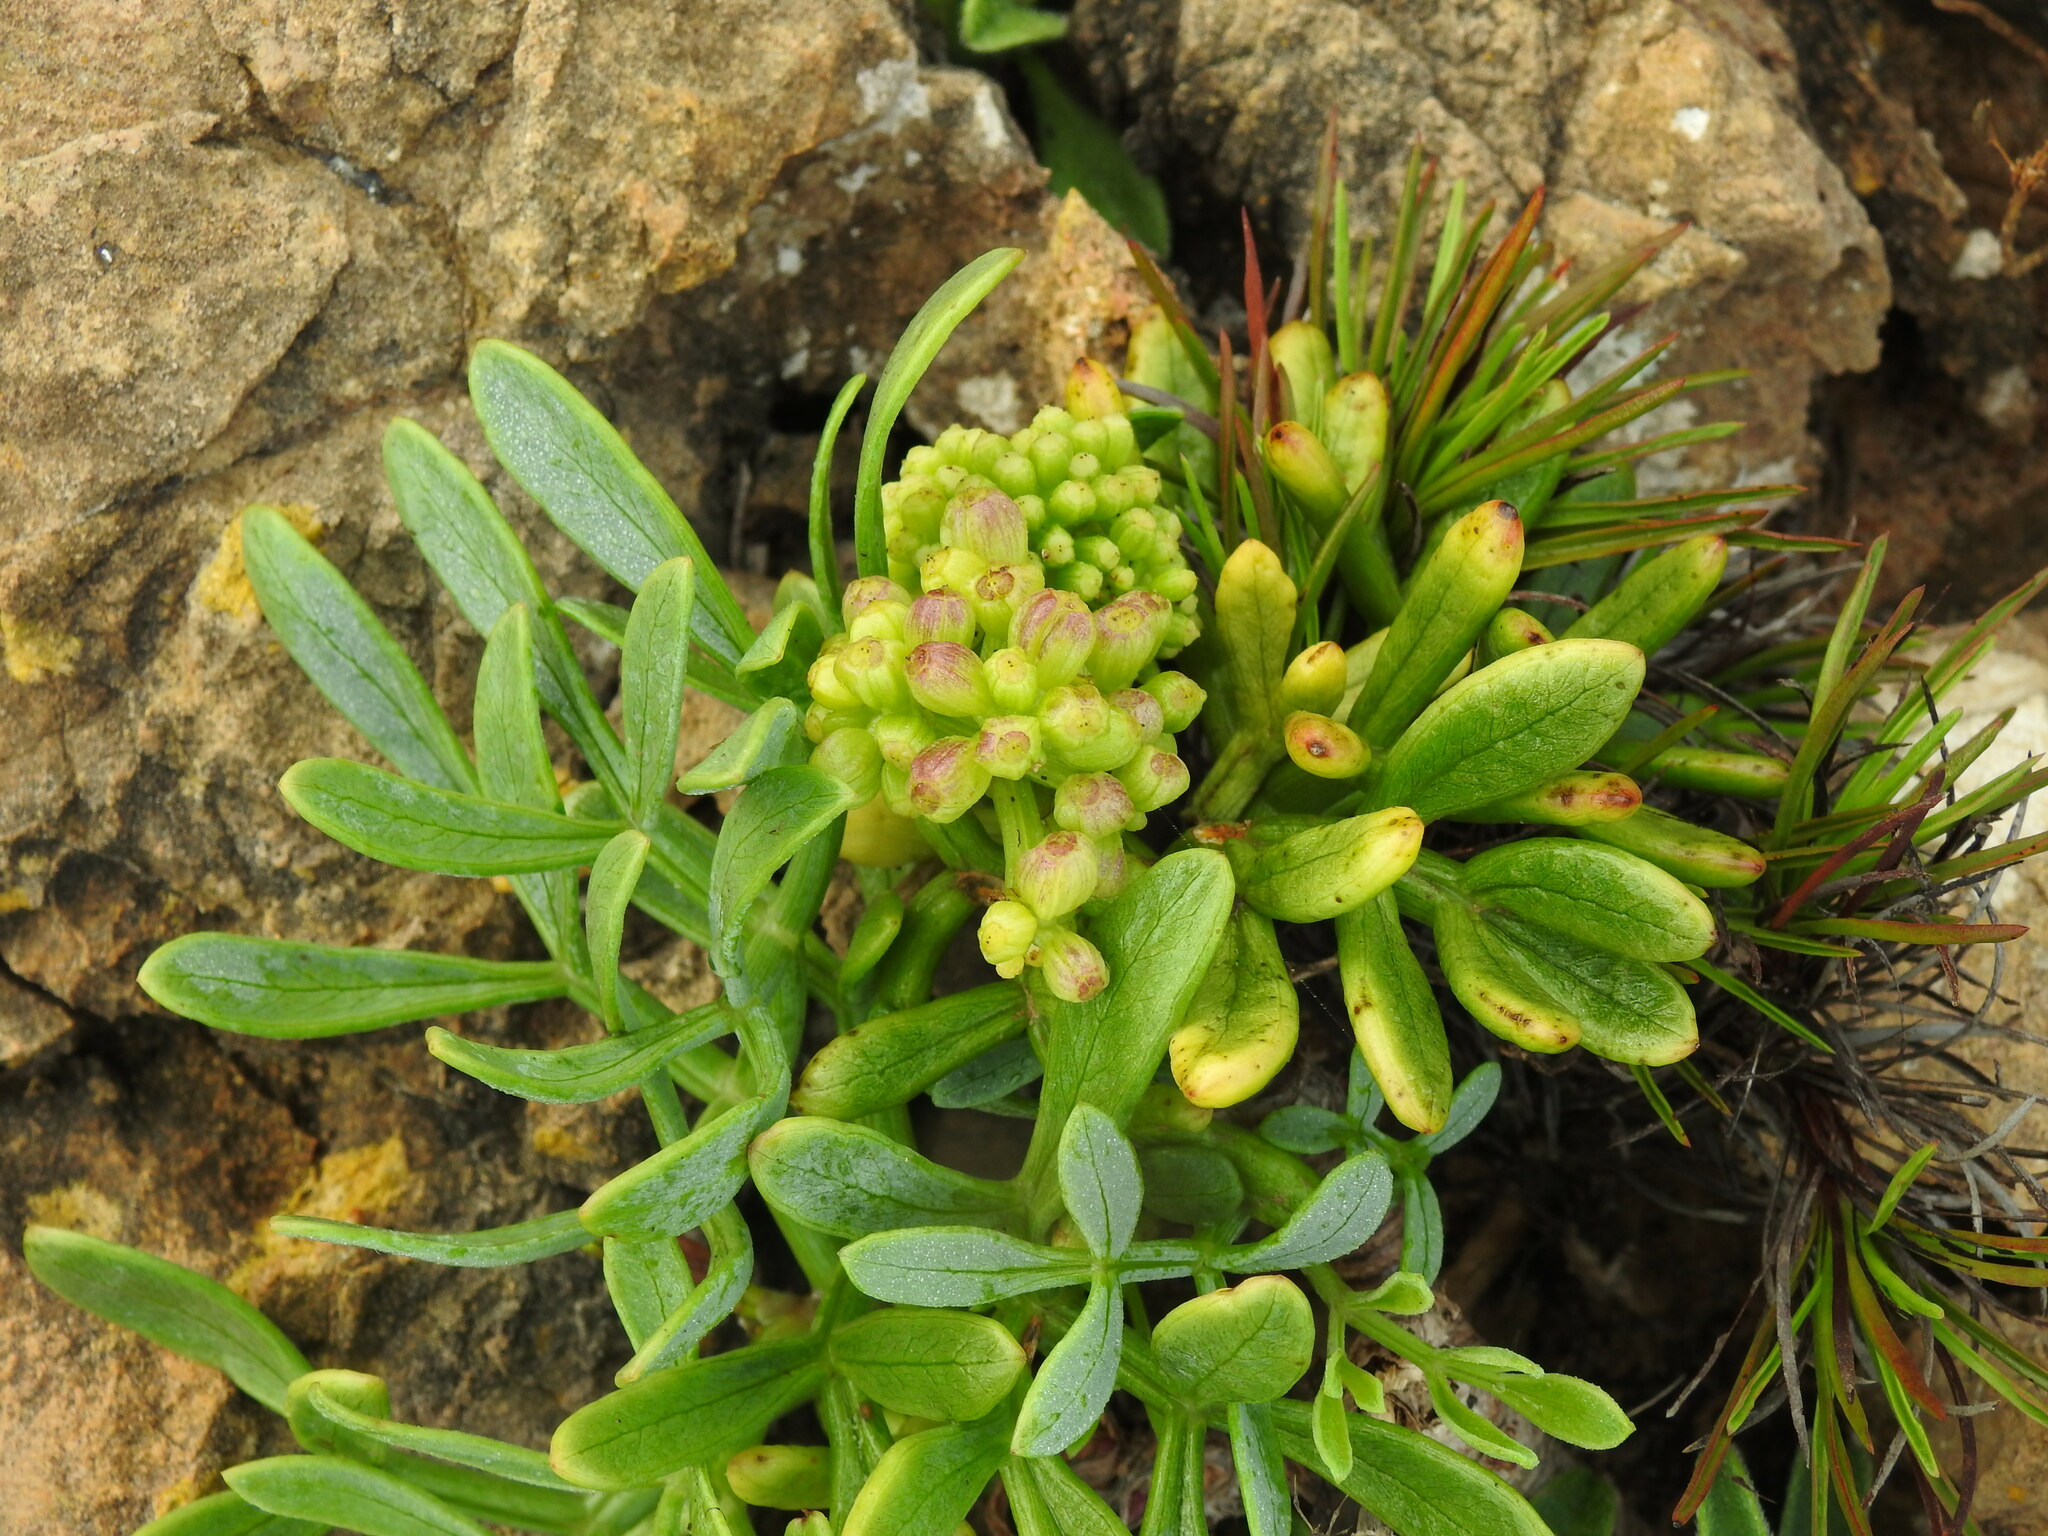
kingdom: Plantae
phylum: Tracheophyta
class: Magnoliopsida
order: Apiales
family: Apiaceae
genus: Crithmum
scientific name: Crithmum maritimum
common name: Rock samphire
